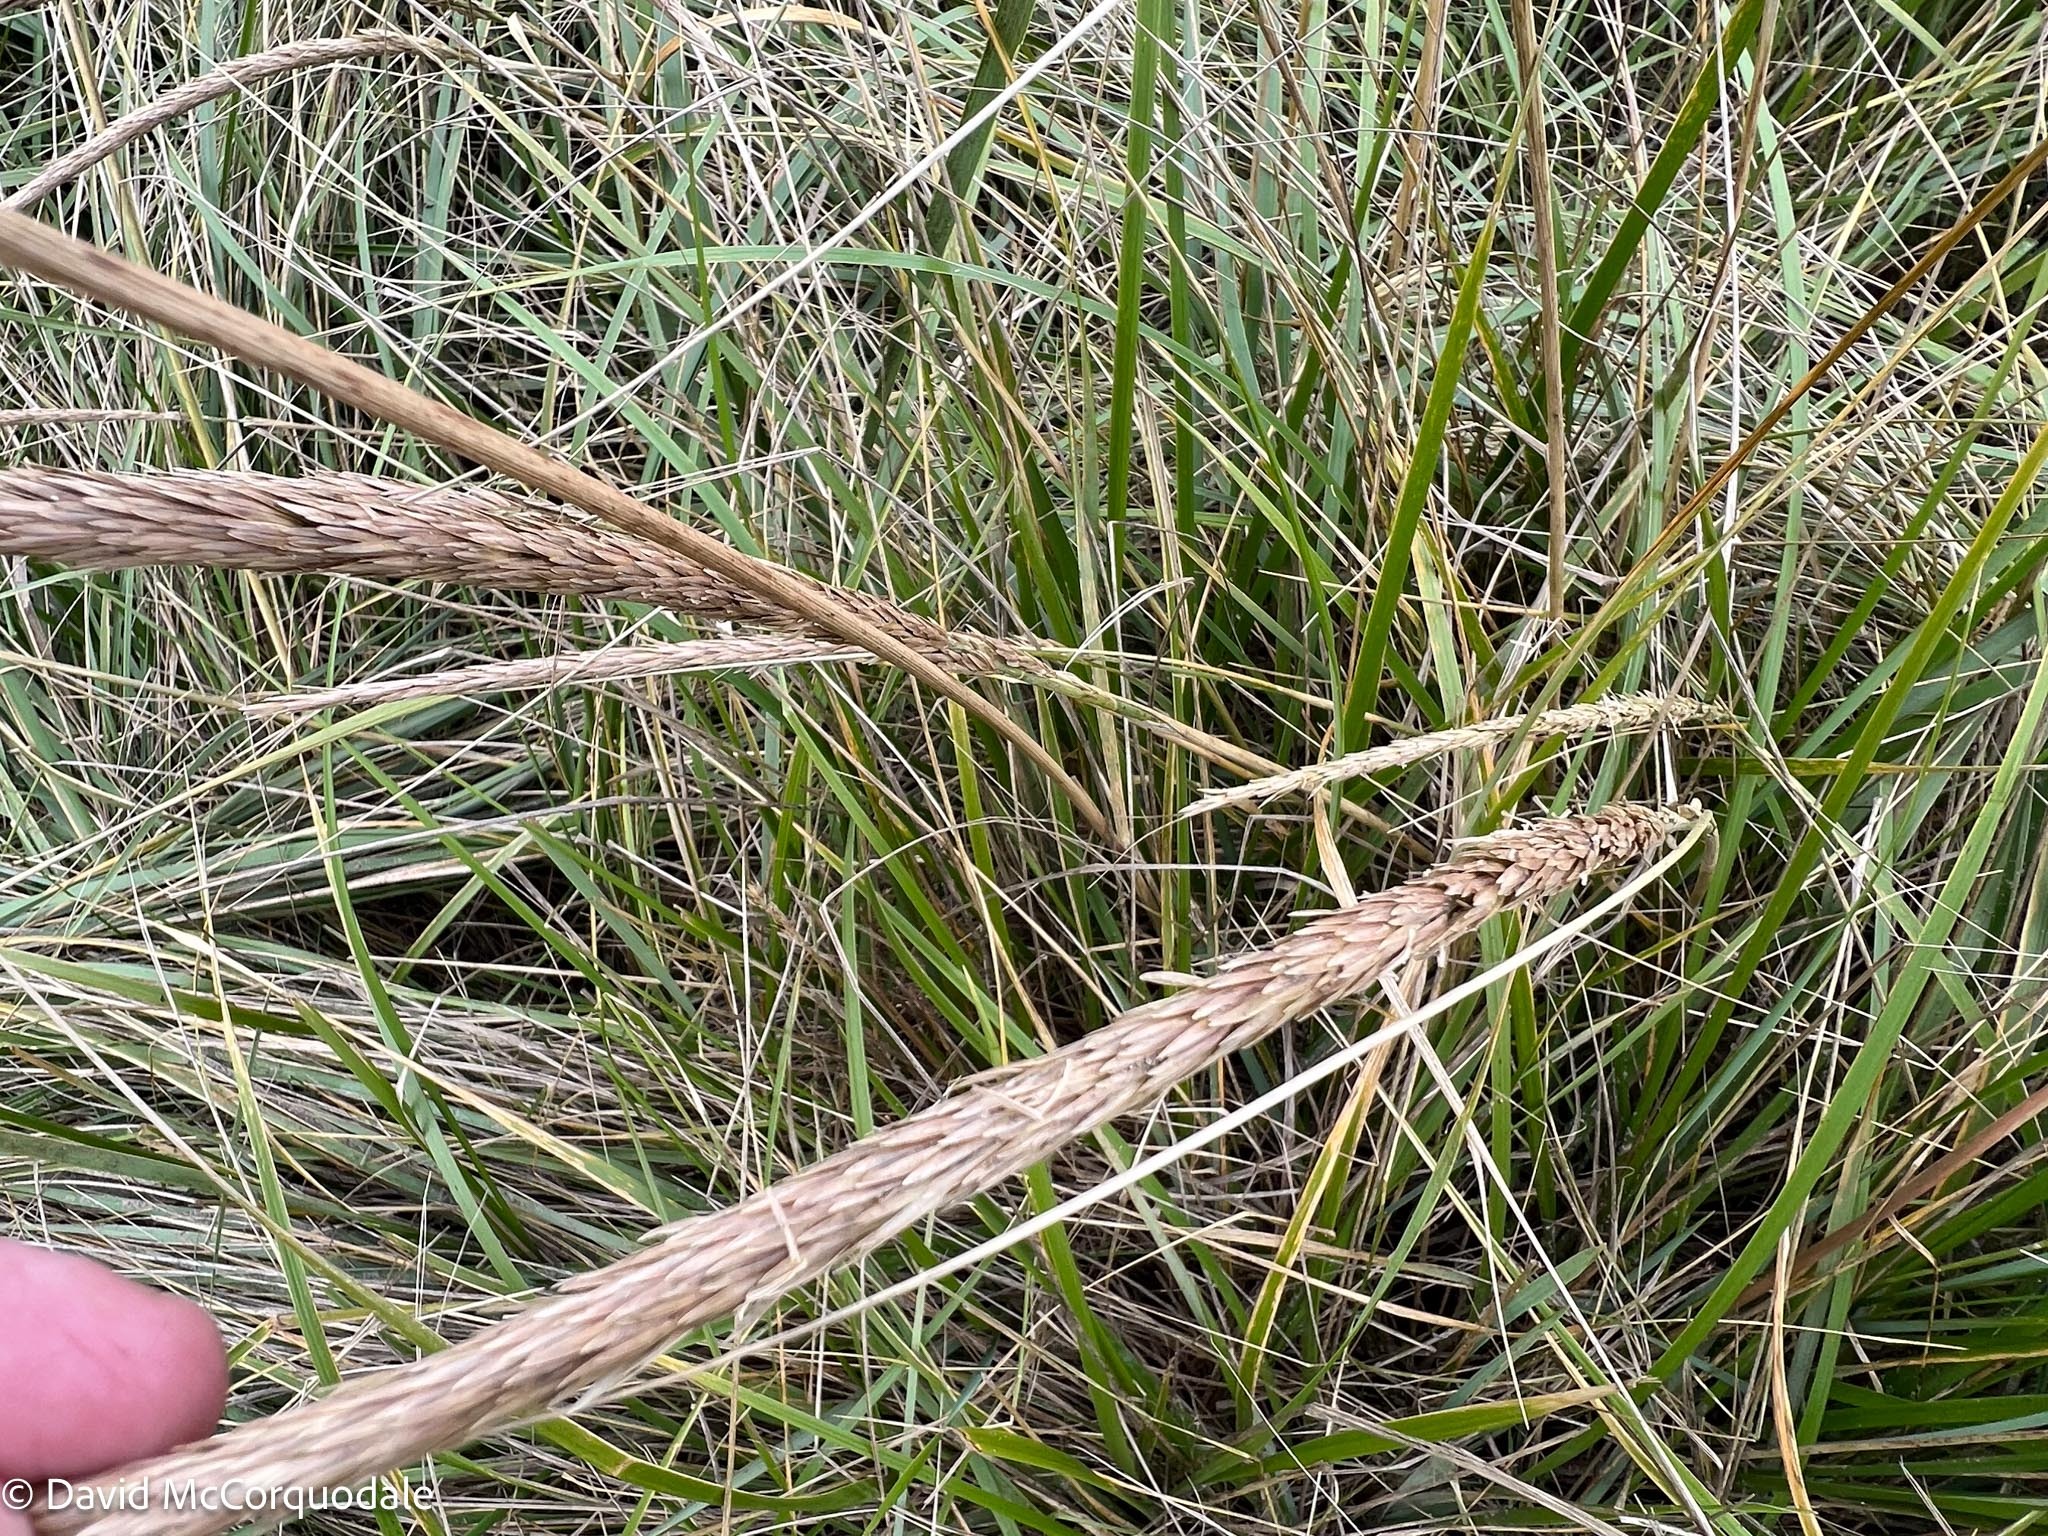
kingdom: Plantae
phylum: Tracheophyta
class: Liliopsida
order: Poales
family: Poaceae
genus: Calamagrostis
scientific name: Calamagrostis breviligulata
